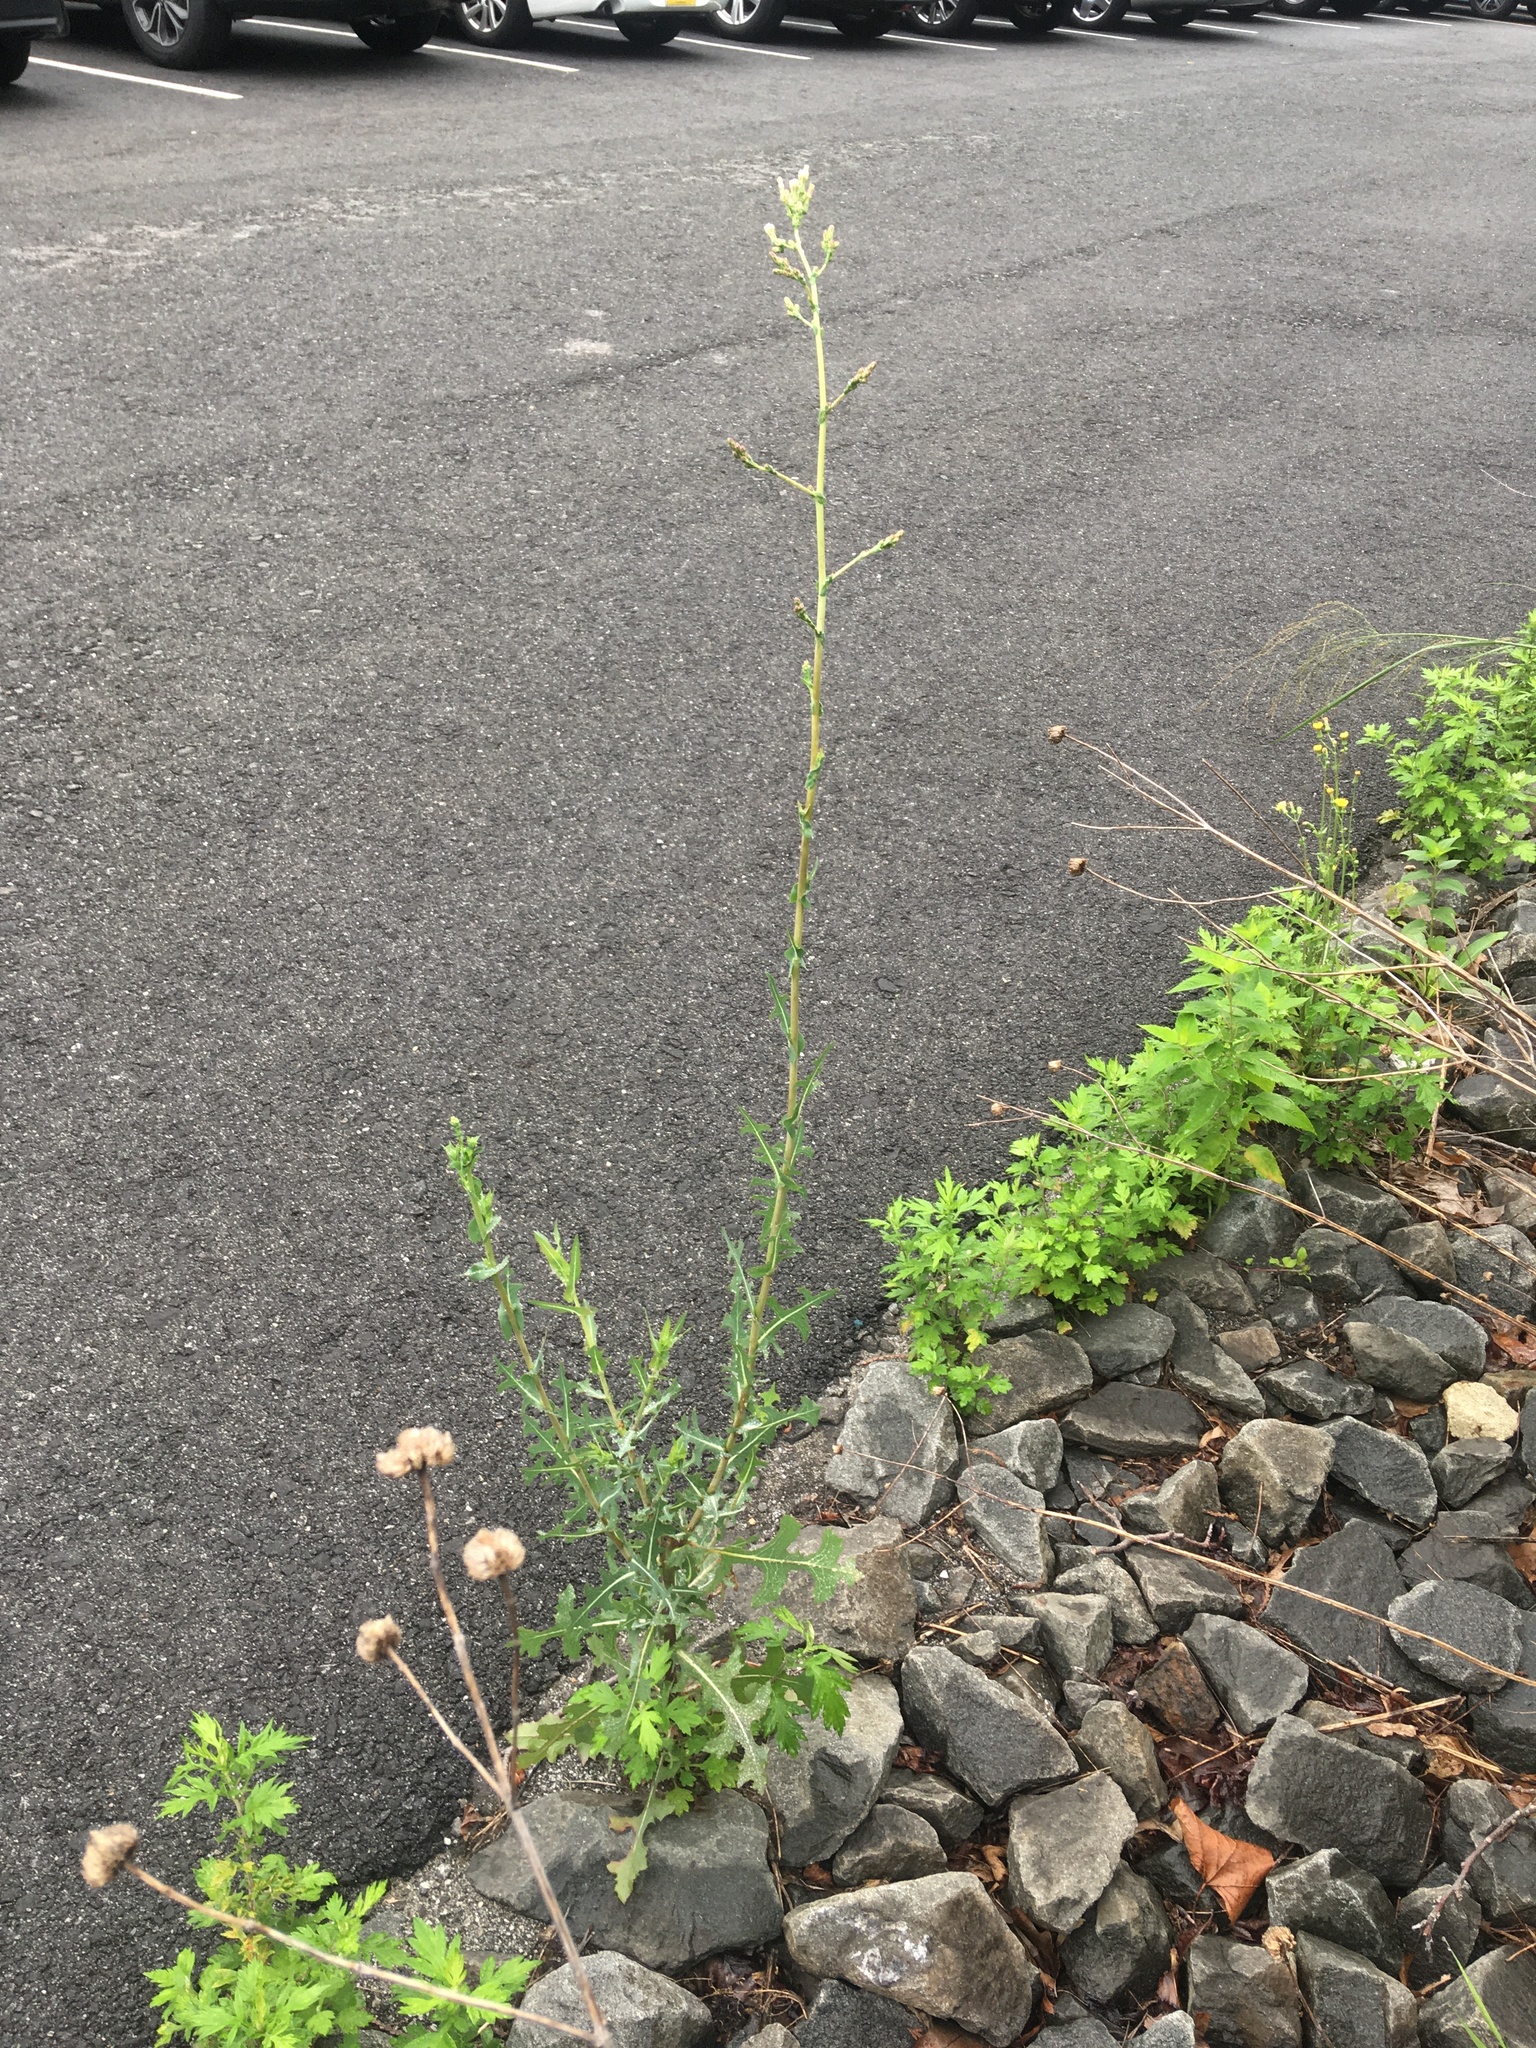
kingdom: Plantae
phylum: Tracheophyta
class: Magnoliopsida
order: Asterales
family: Asteraceae
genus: Lactuca
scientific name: Lactuca serriola
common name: Prickly lettuce
